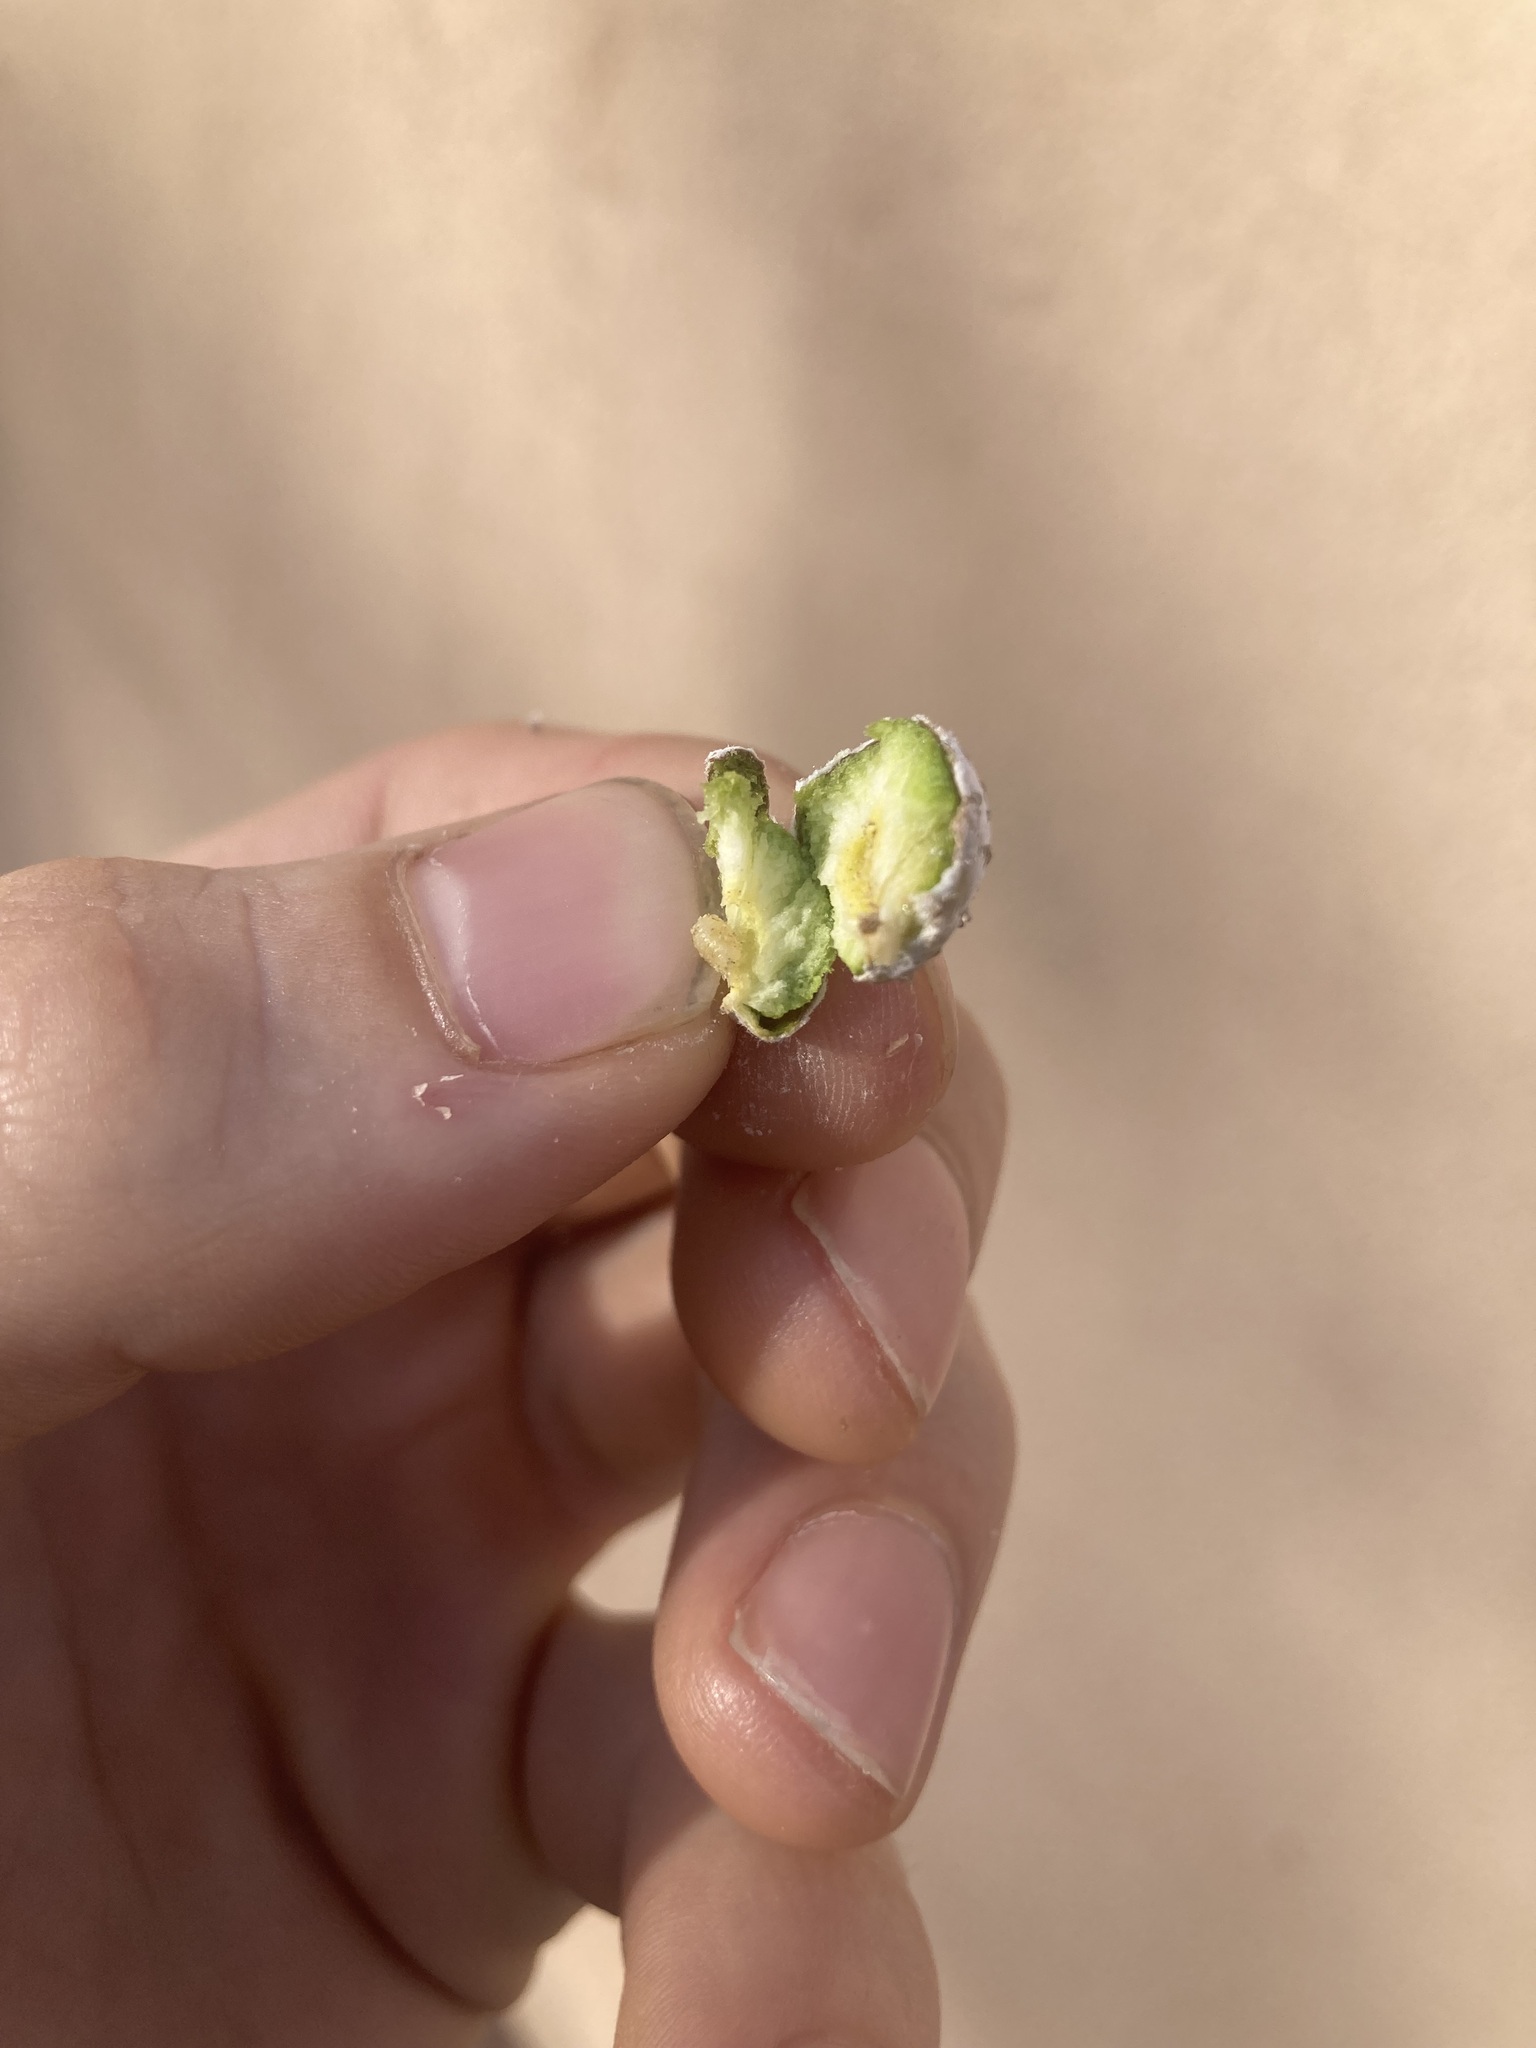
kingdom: Animalia
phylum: Arthropoda
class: Insecta
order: Diptera
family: Tephritidae
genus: Aciurina
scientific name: Aciurina trixa
